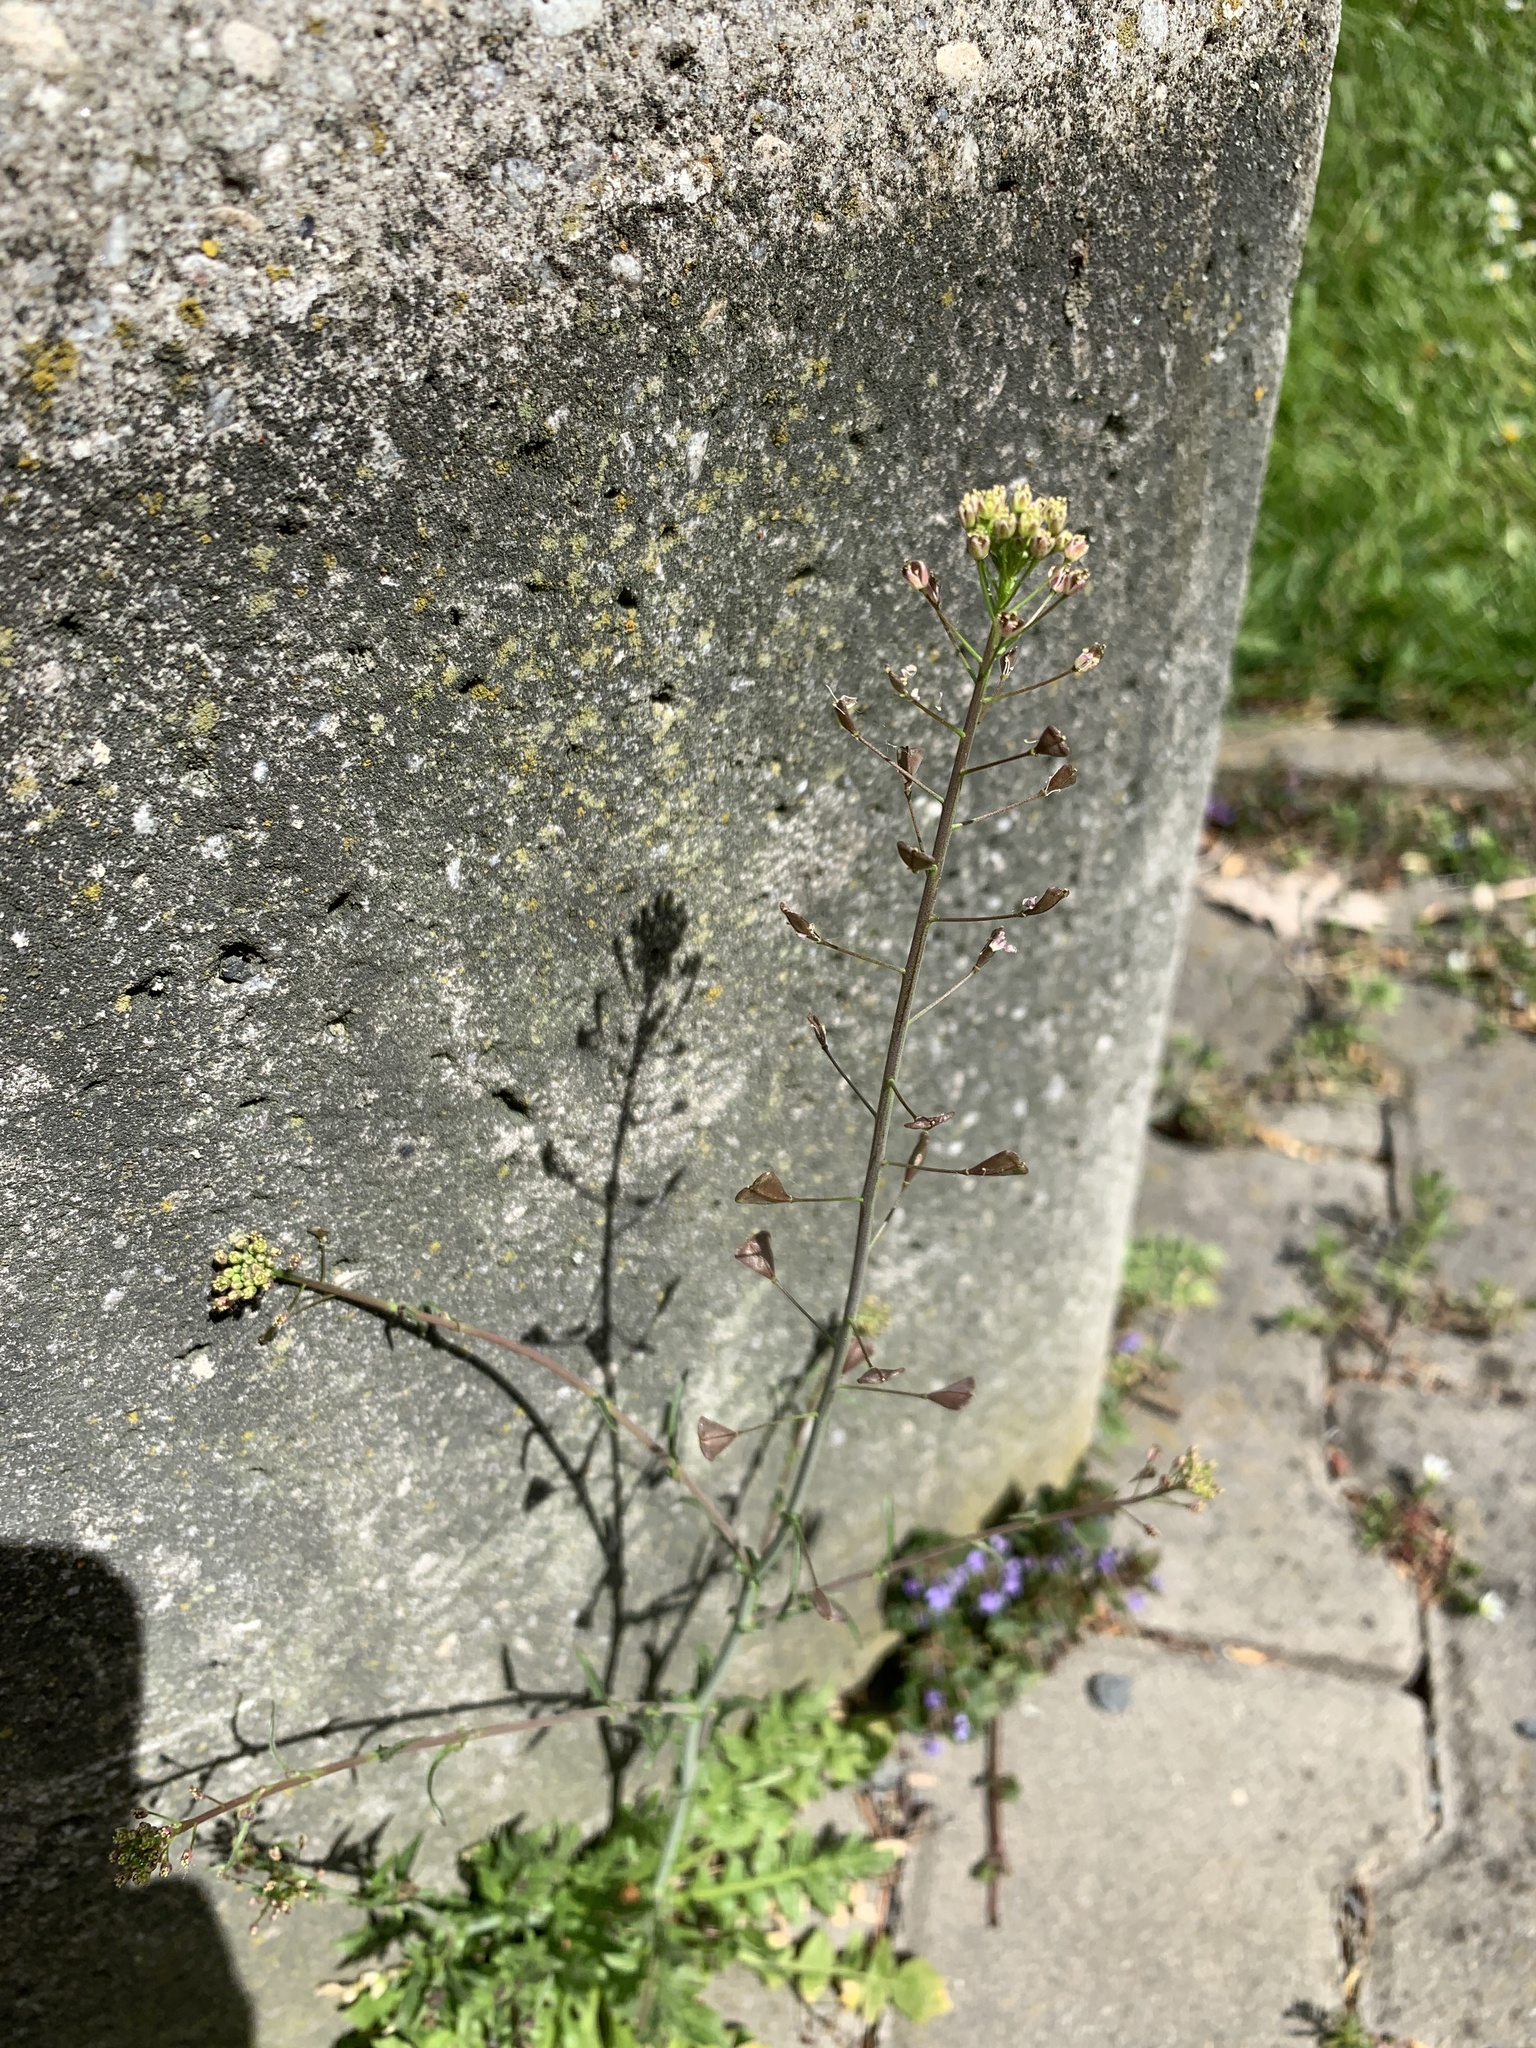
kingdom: Plantae
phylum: Tracheophyta
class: Magnoliopsida
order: Brassicales
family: Brassicaceae
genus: Capsella
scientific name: Capsella bursa-pastoris
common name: Shepherd's purse
